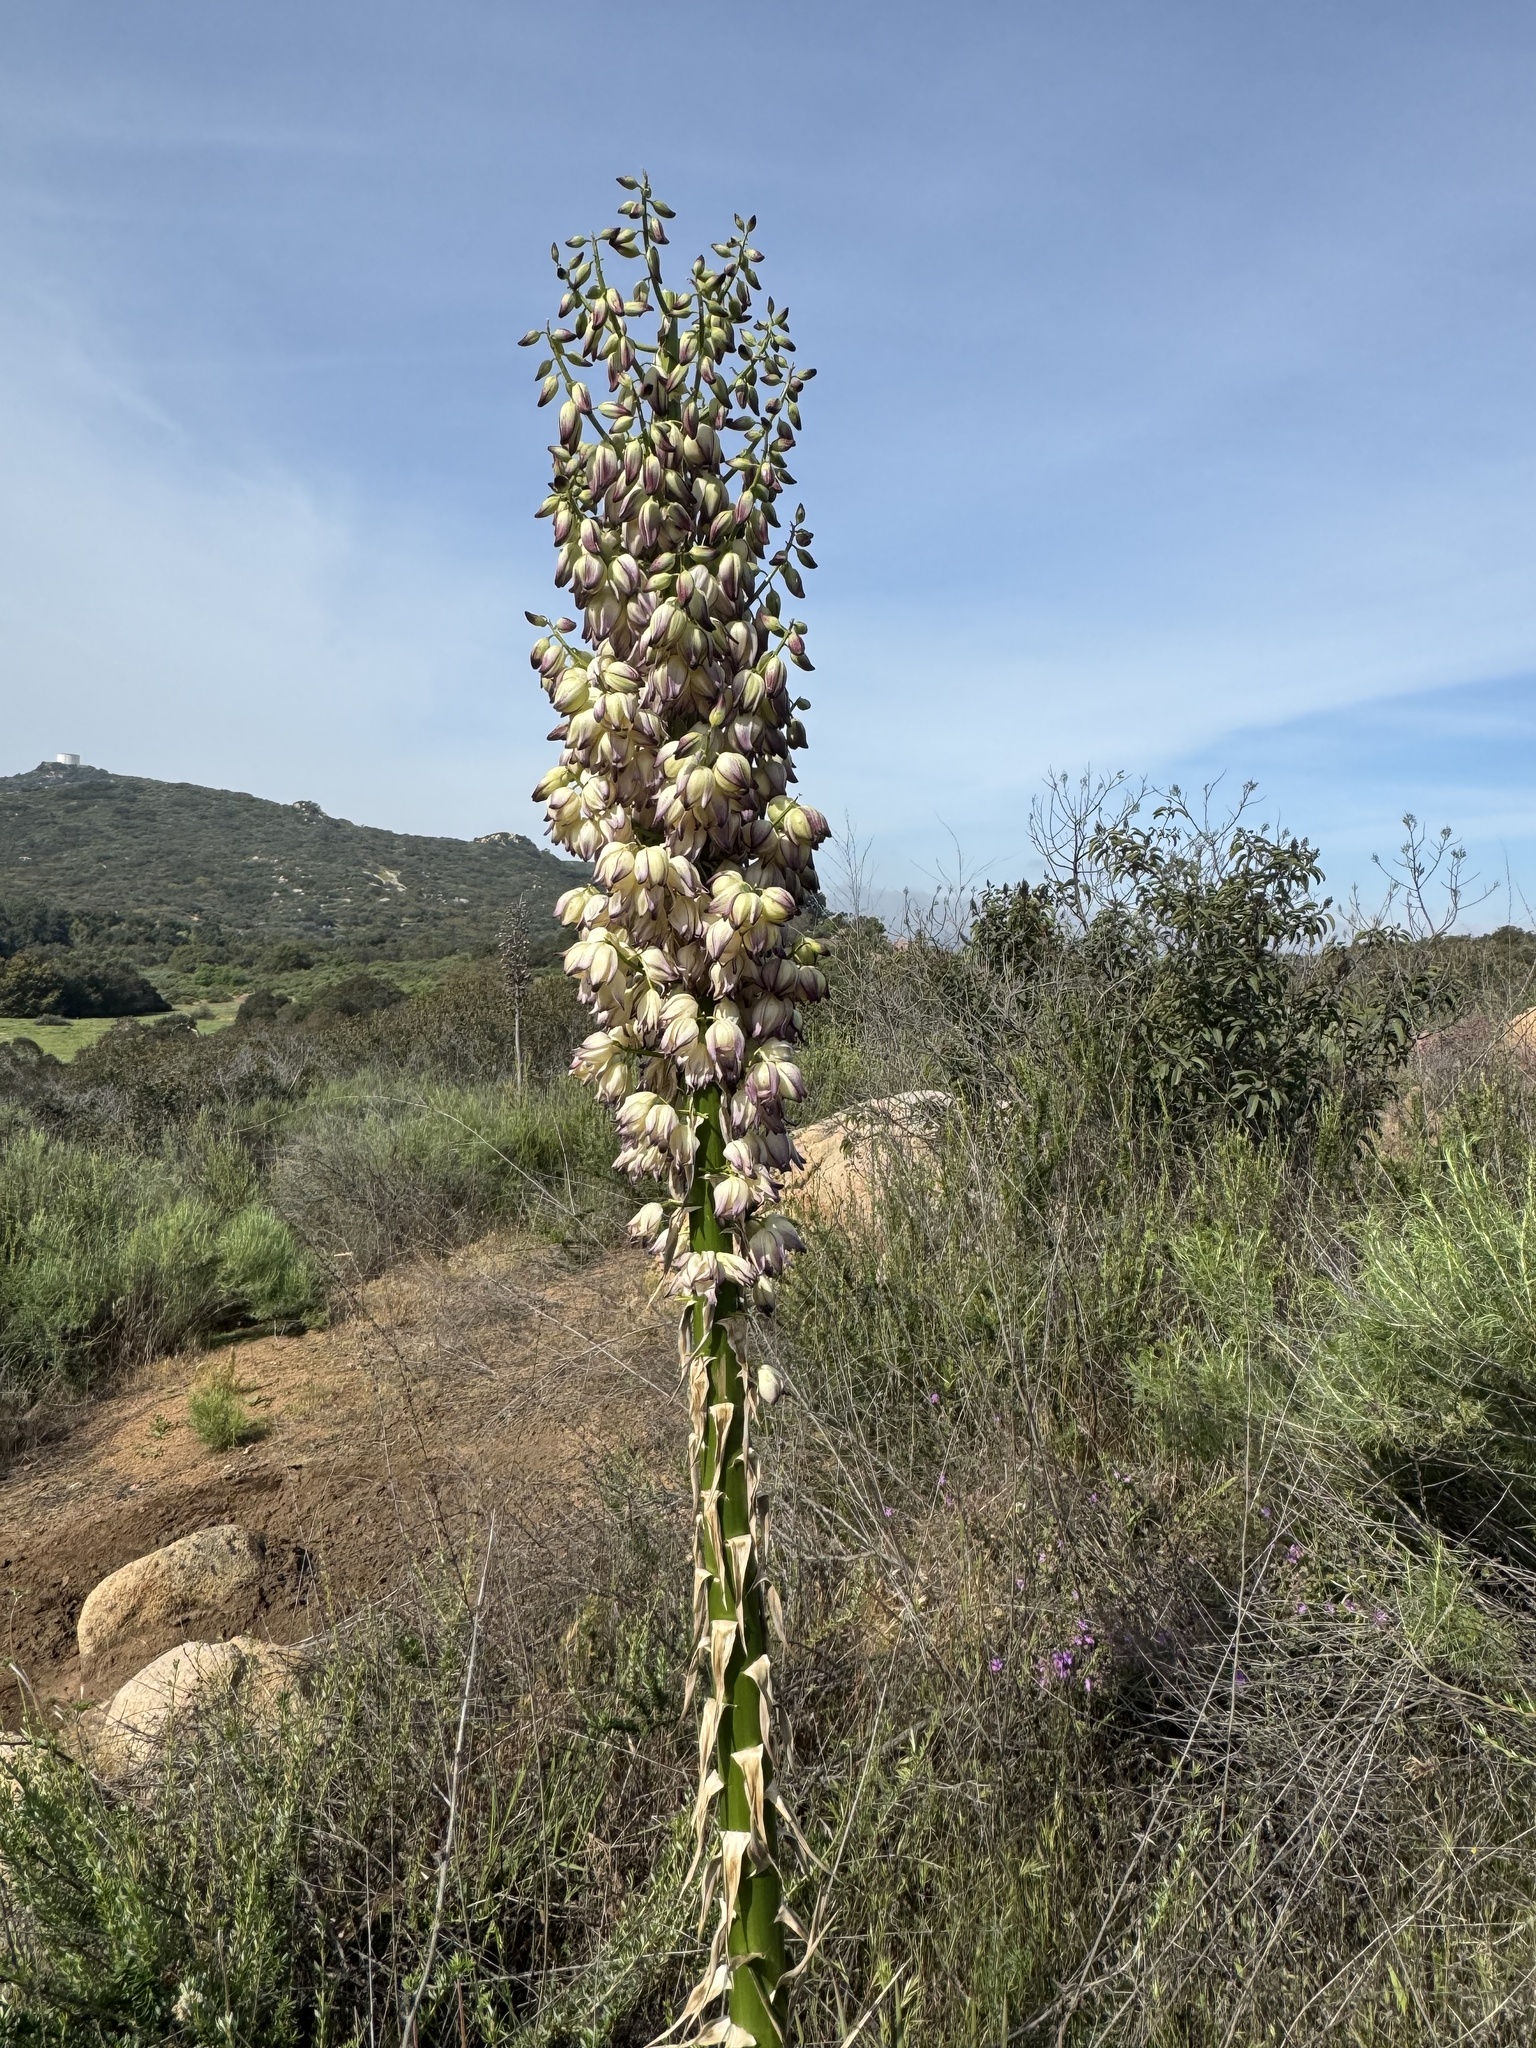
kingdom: Plantae
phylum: Tracheophyta
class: Liliopsida
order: Asparagales
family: Asparagaceae
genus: Hesperoyucca
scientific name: Hesperoyucca whipplei
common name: Our lord's-candle
